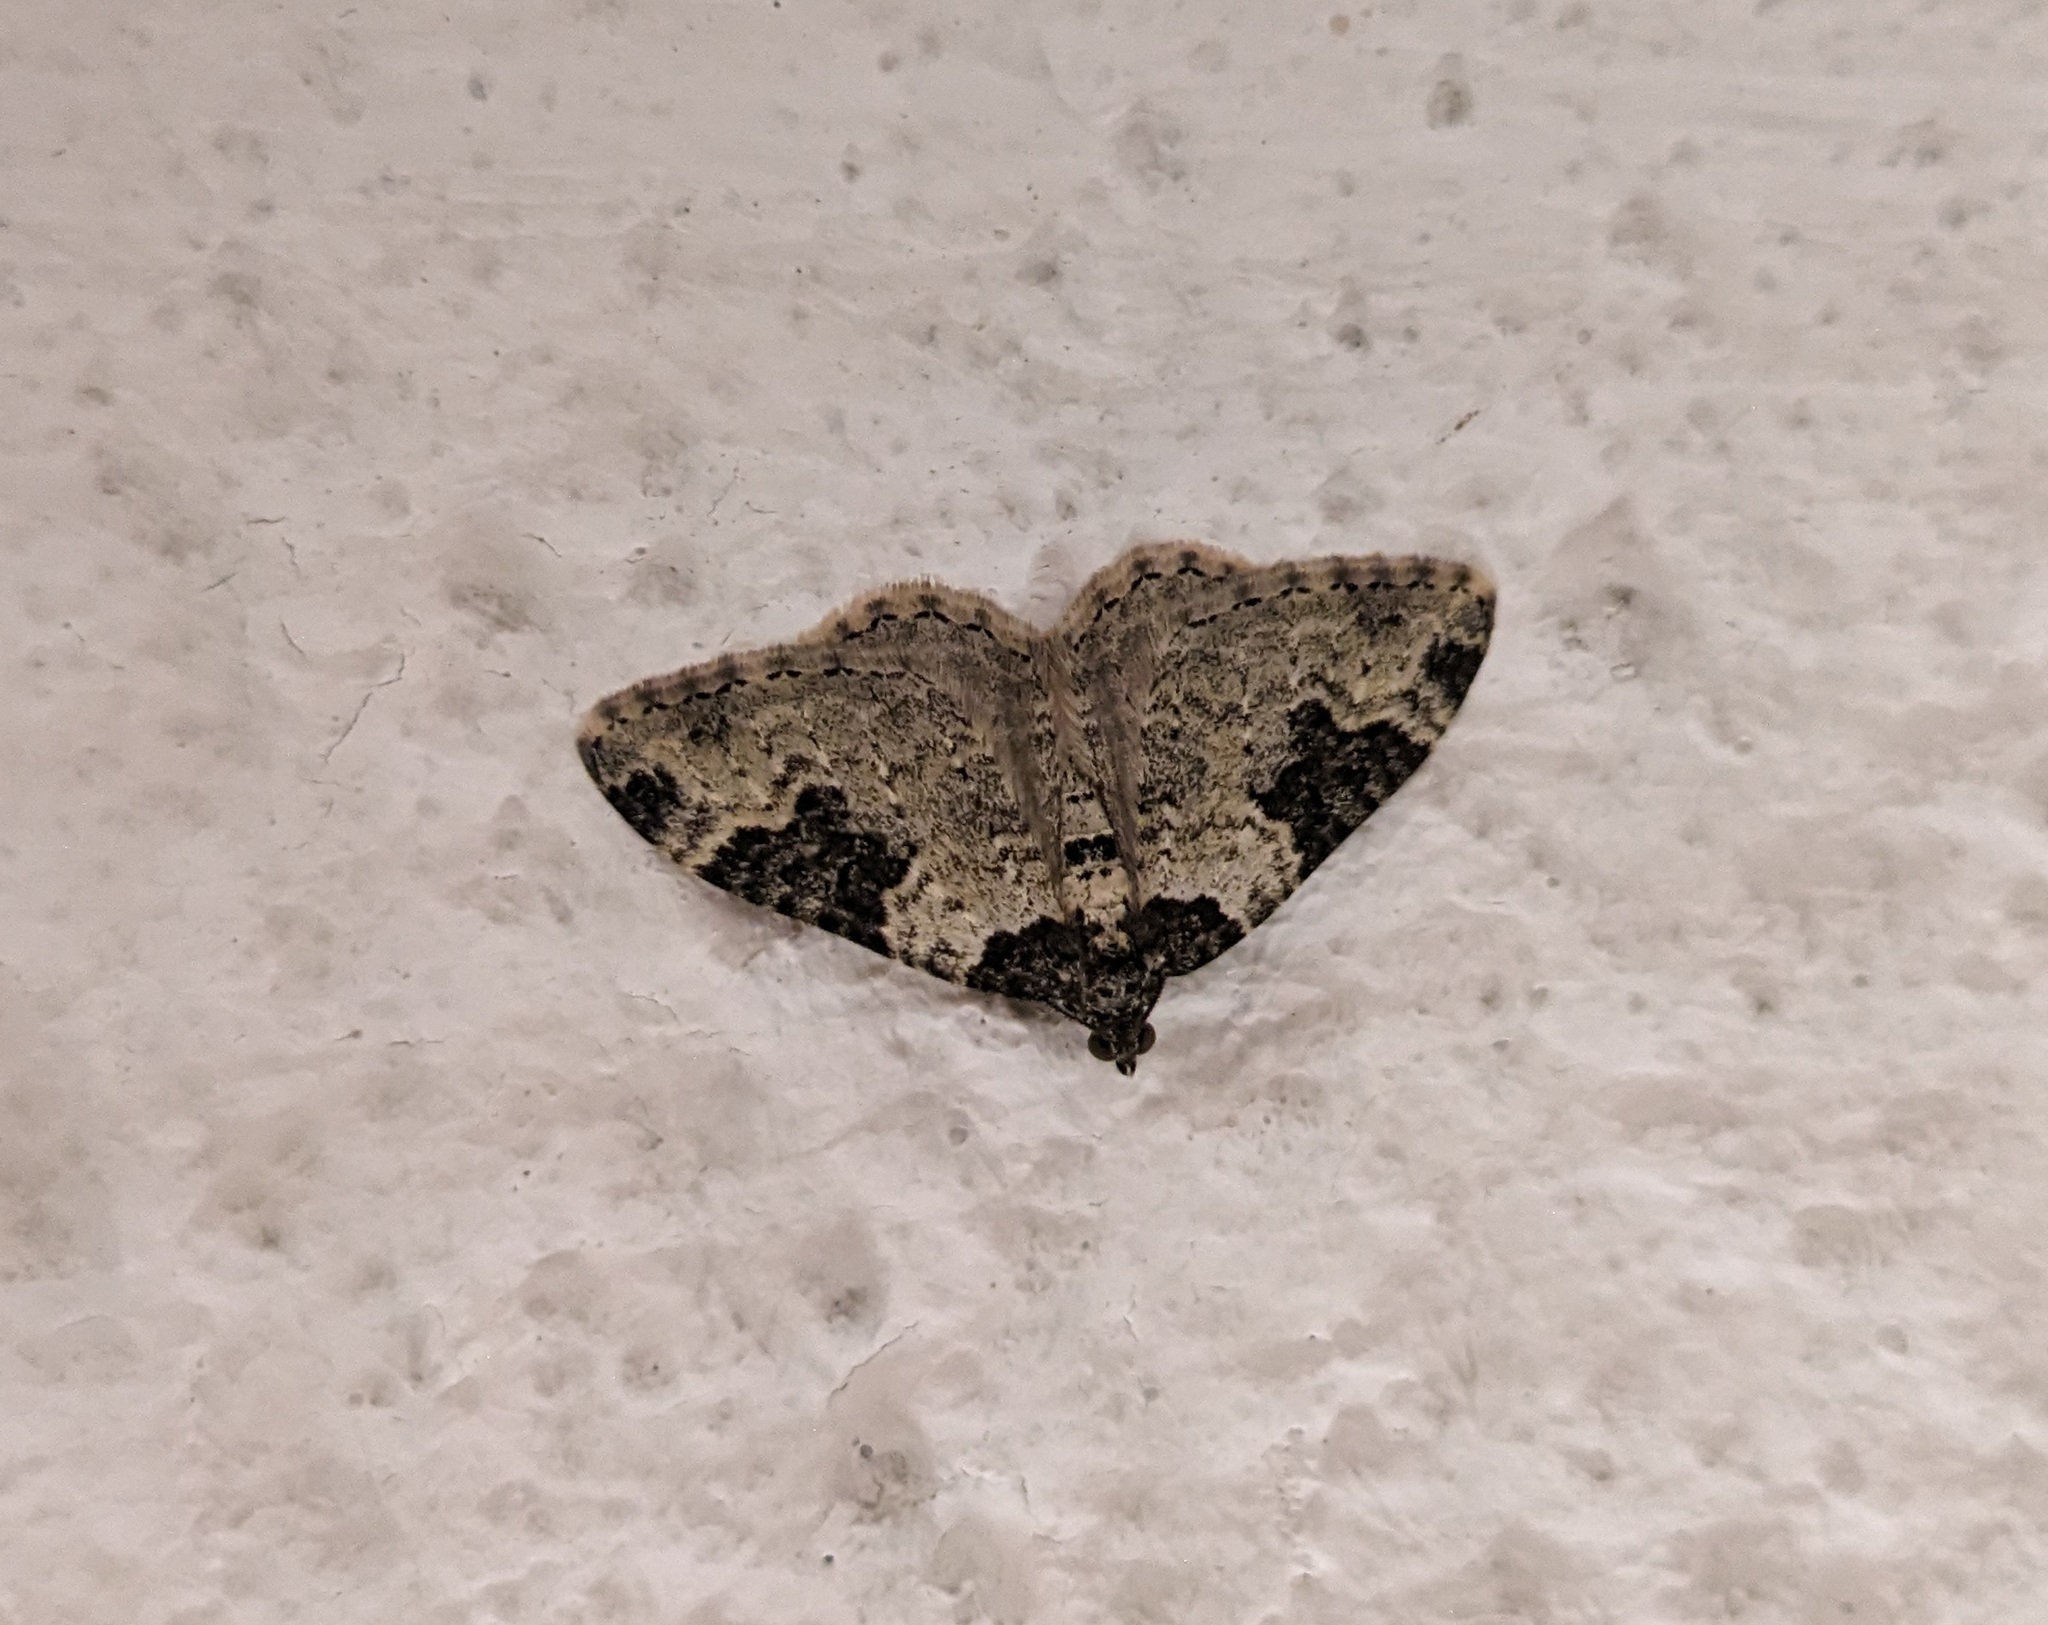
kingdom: Animalia
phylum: Arthropoda
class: Insecta
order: Lepidoptera
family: Geometridae
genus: Xanthorhoe
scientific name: Xanthorhoe fluctuata
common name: Garden carpet
